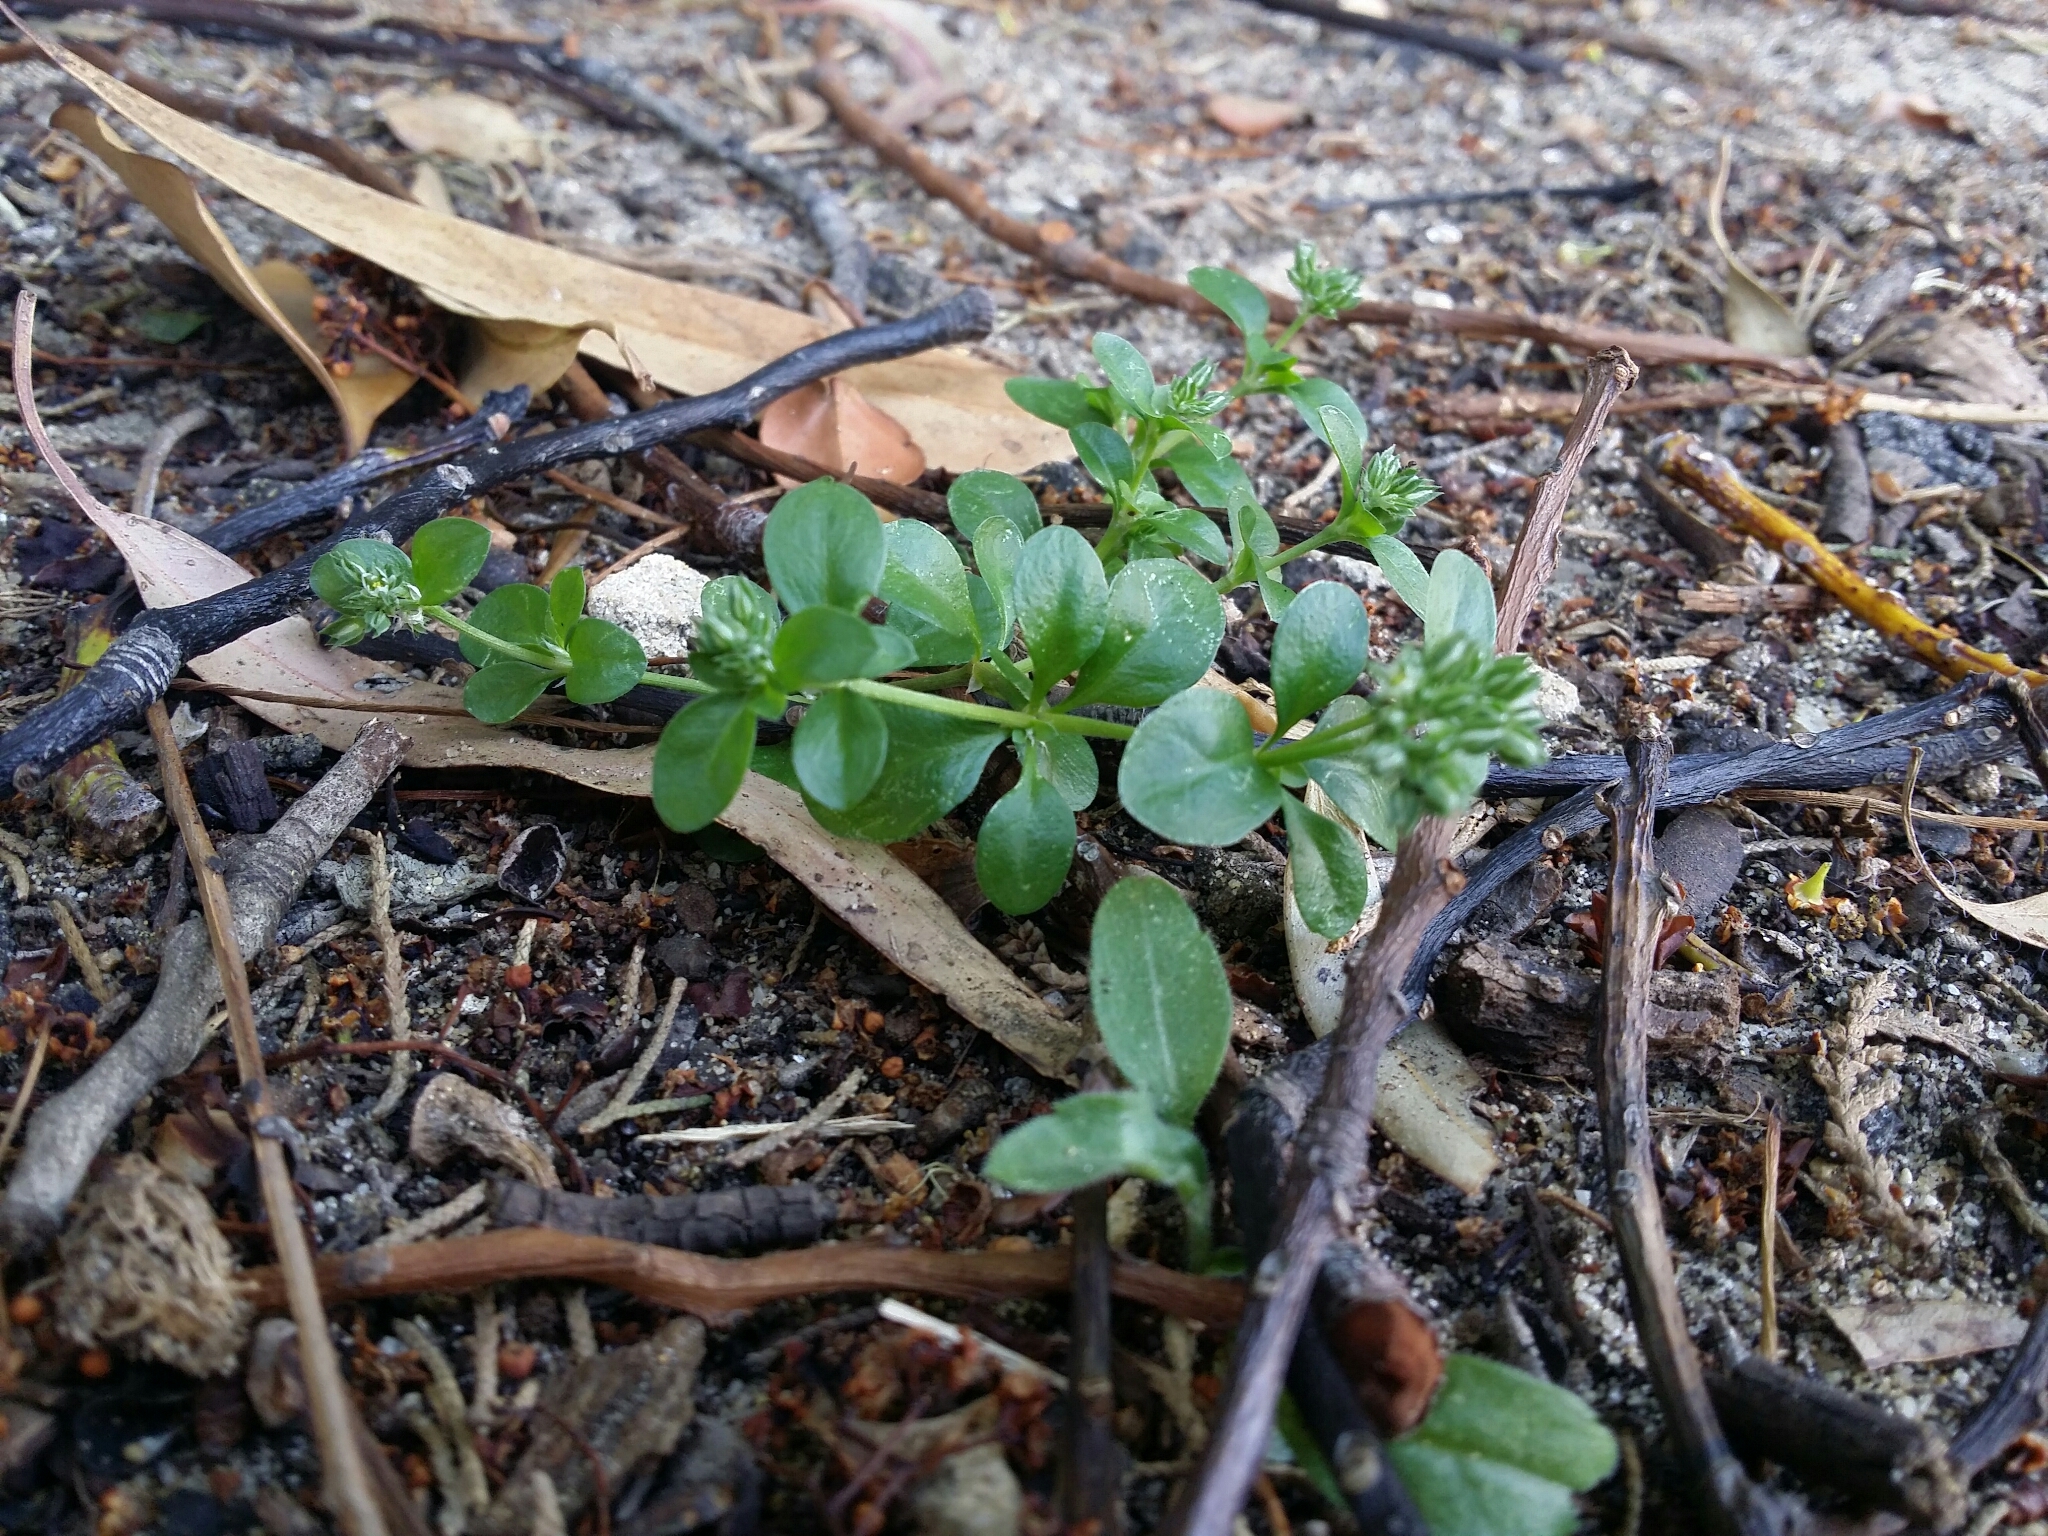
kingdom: Plantae
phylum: Tracheophyta
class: Magnoliopsida
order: Caryophyllales
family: Caryophyllaceae
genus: Polycarpon
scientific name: Polycarpon tetraphyllum
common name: Four-leaved all-seed
